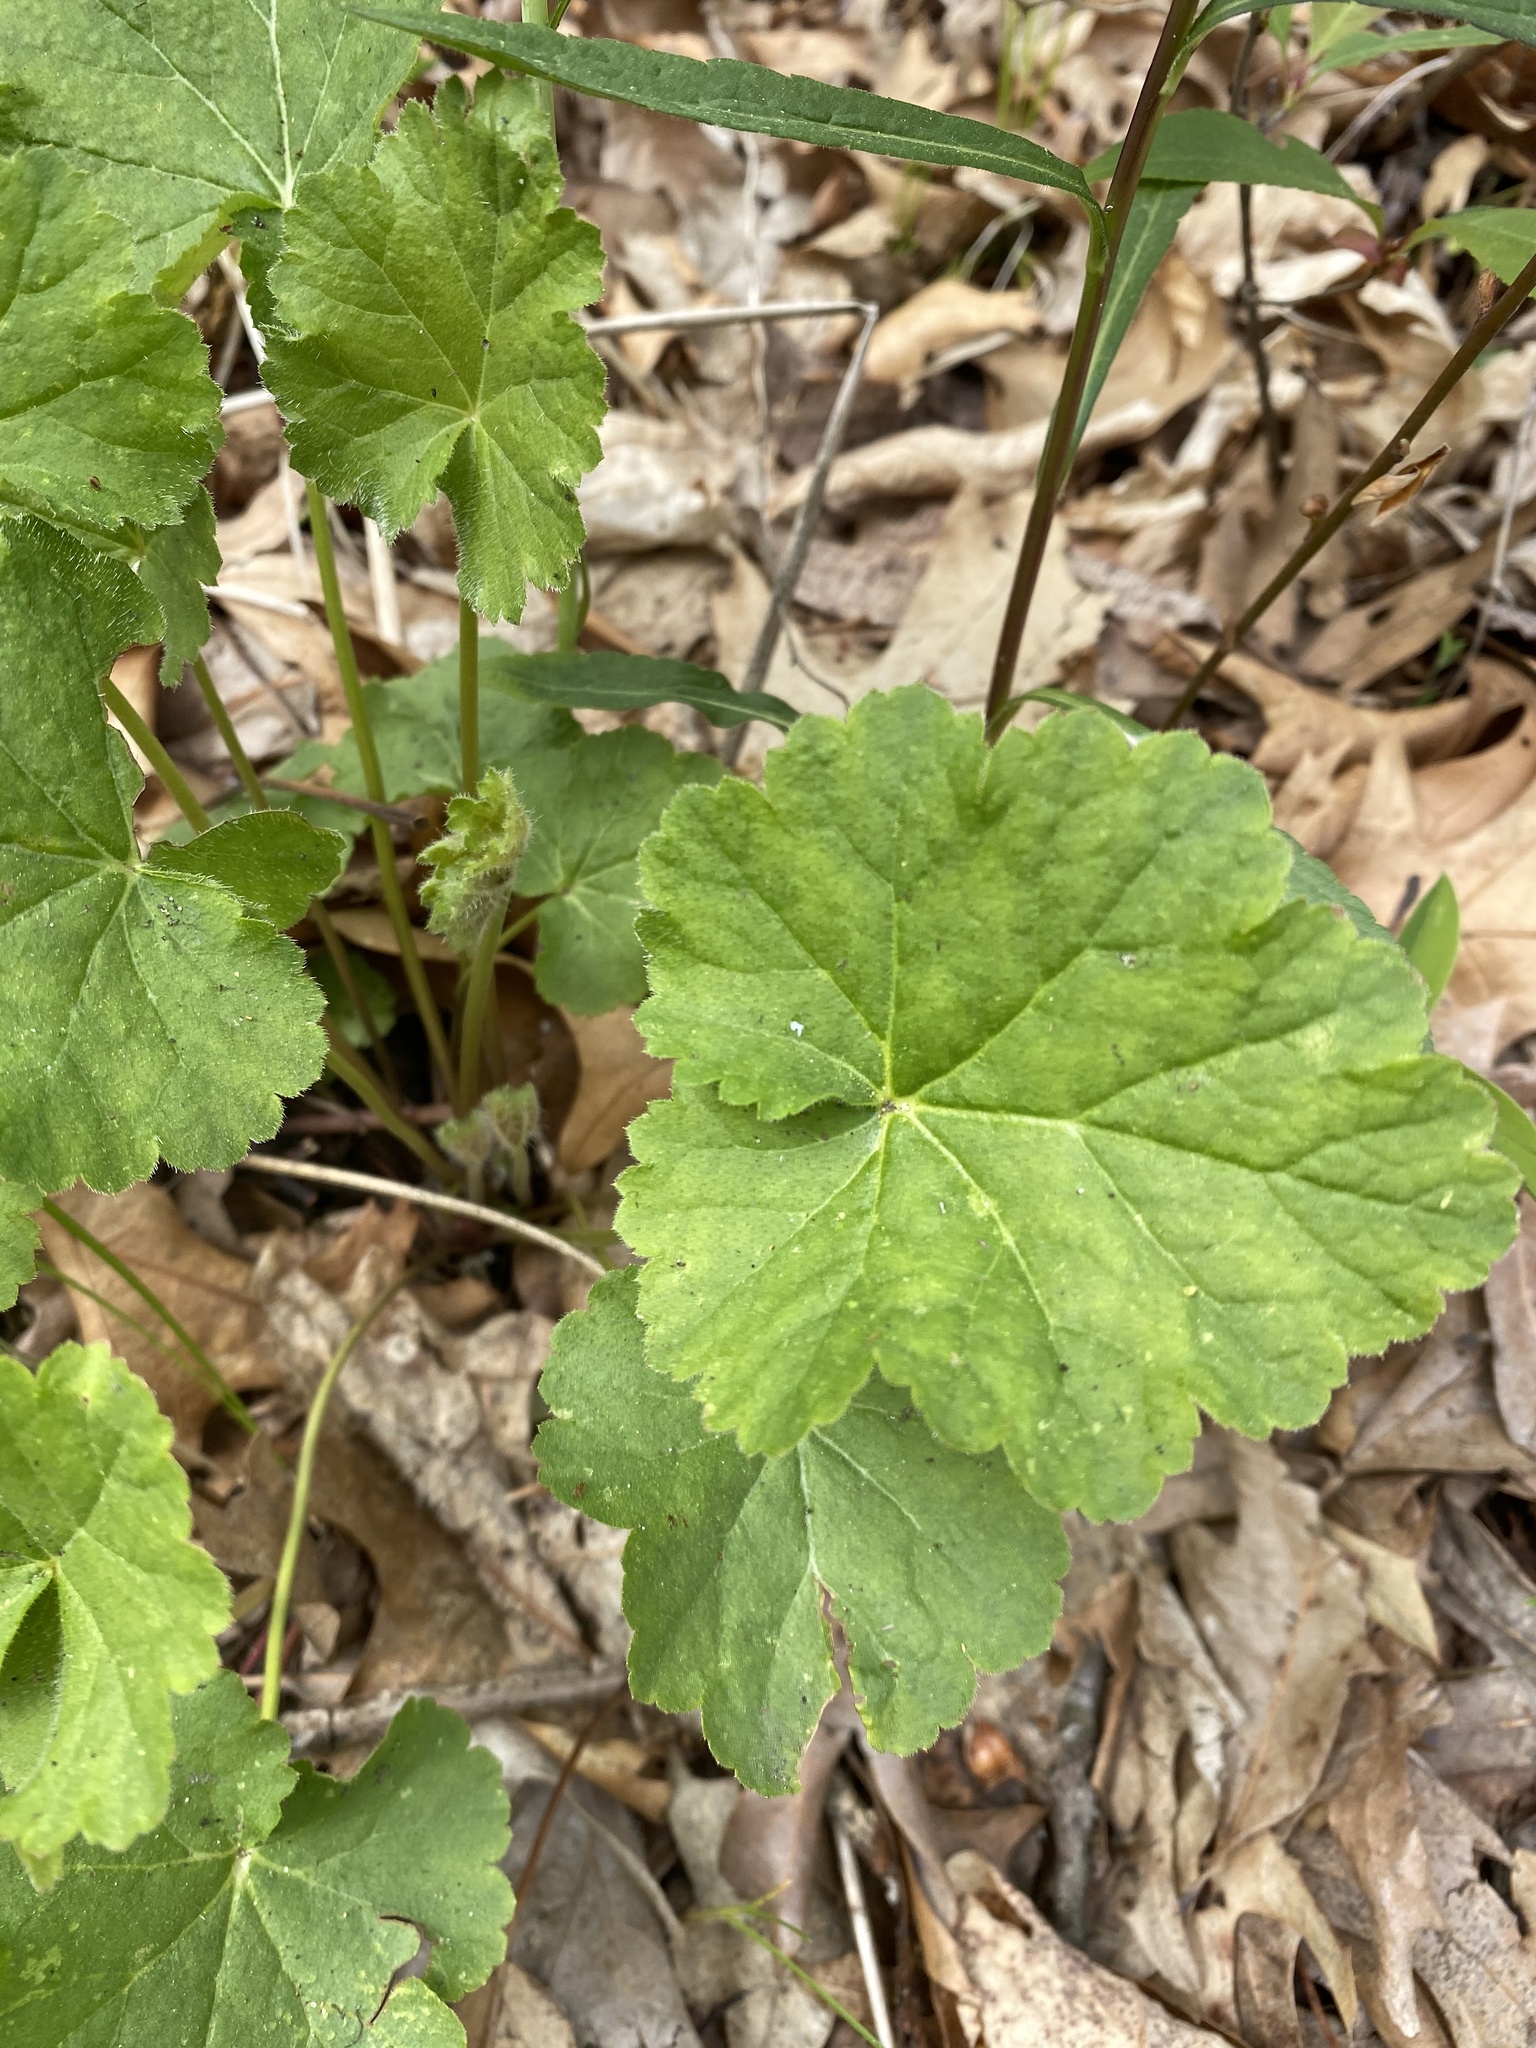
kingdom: Plantae
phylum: Tracheophyta
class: Magnoliopsida
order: Saxifragales
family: Saxifragaceae
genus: Heuchera
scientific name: Heuchera americana
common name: Alumroot
